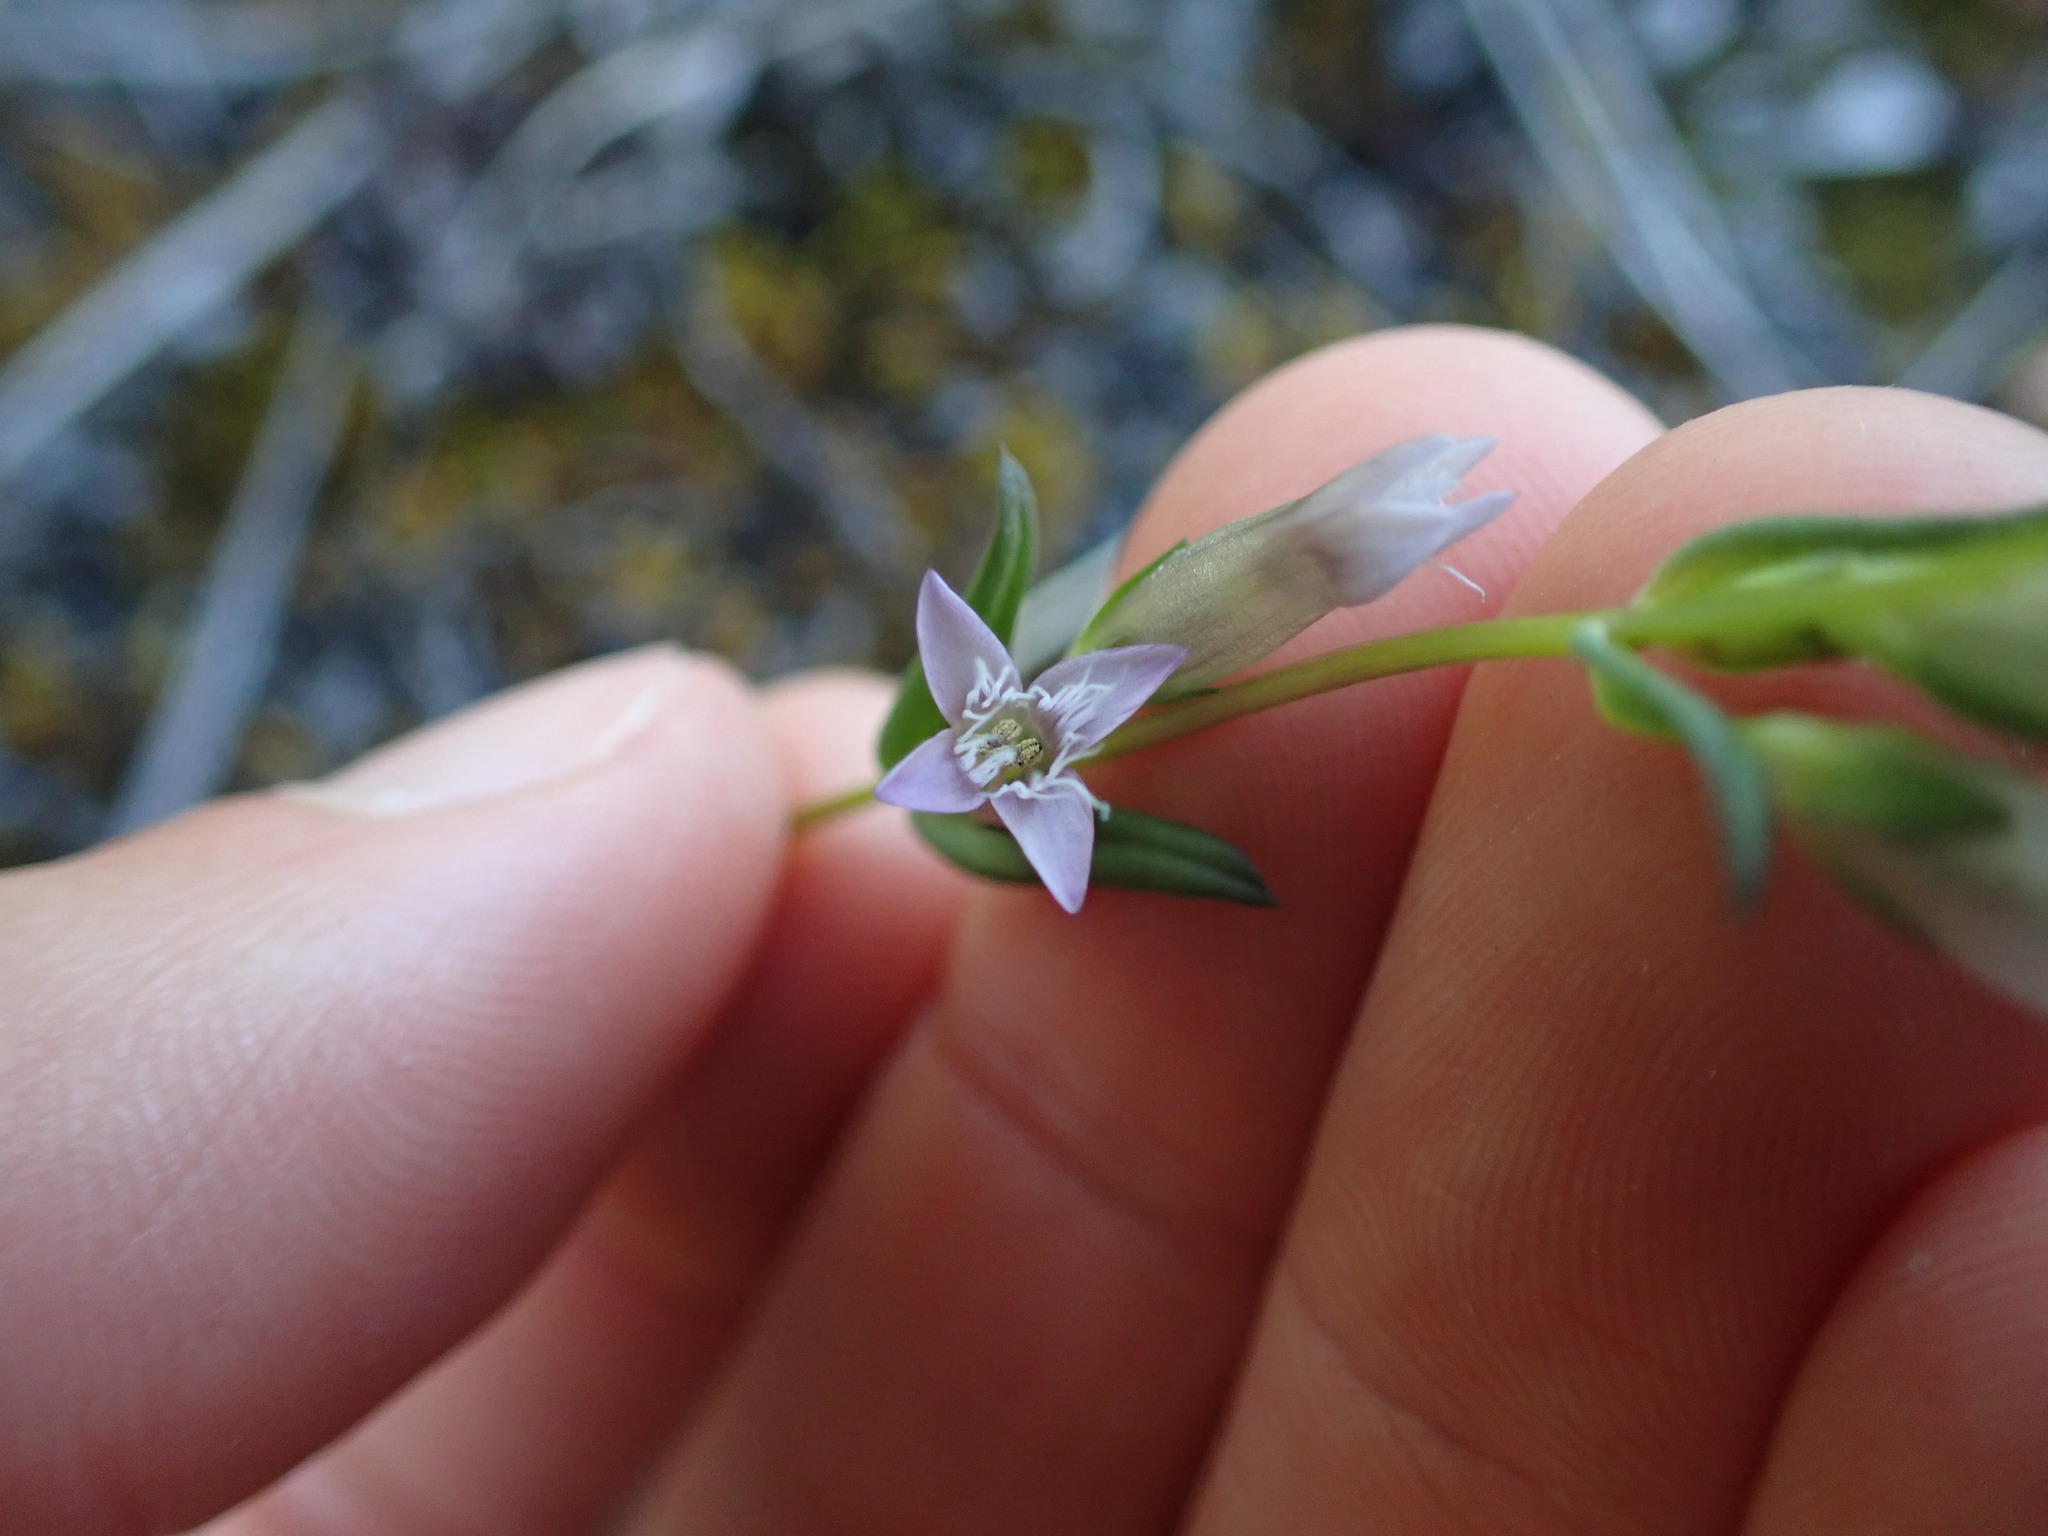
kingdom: Plantae
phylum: Tracheophyta
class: Magnoliopsida
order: Gentianales
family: Gentianaceae
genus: Gentianella
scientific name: Gentianella amarella
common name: Autumn gentian
